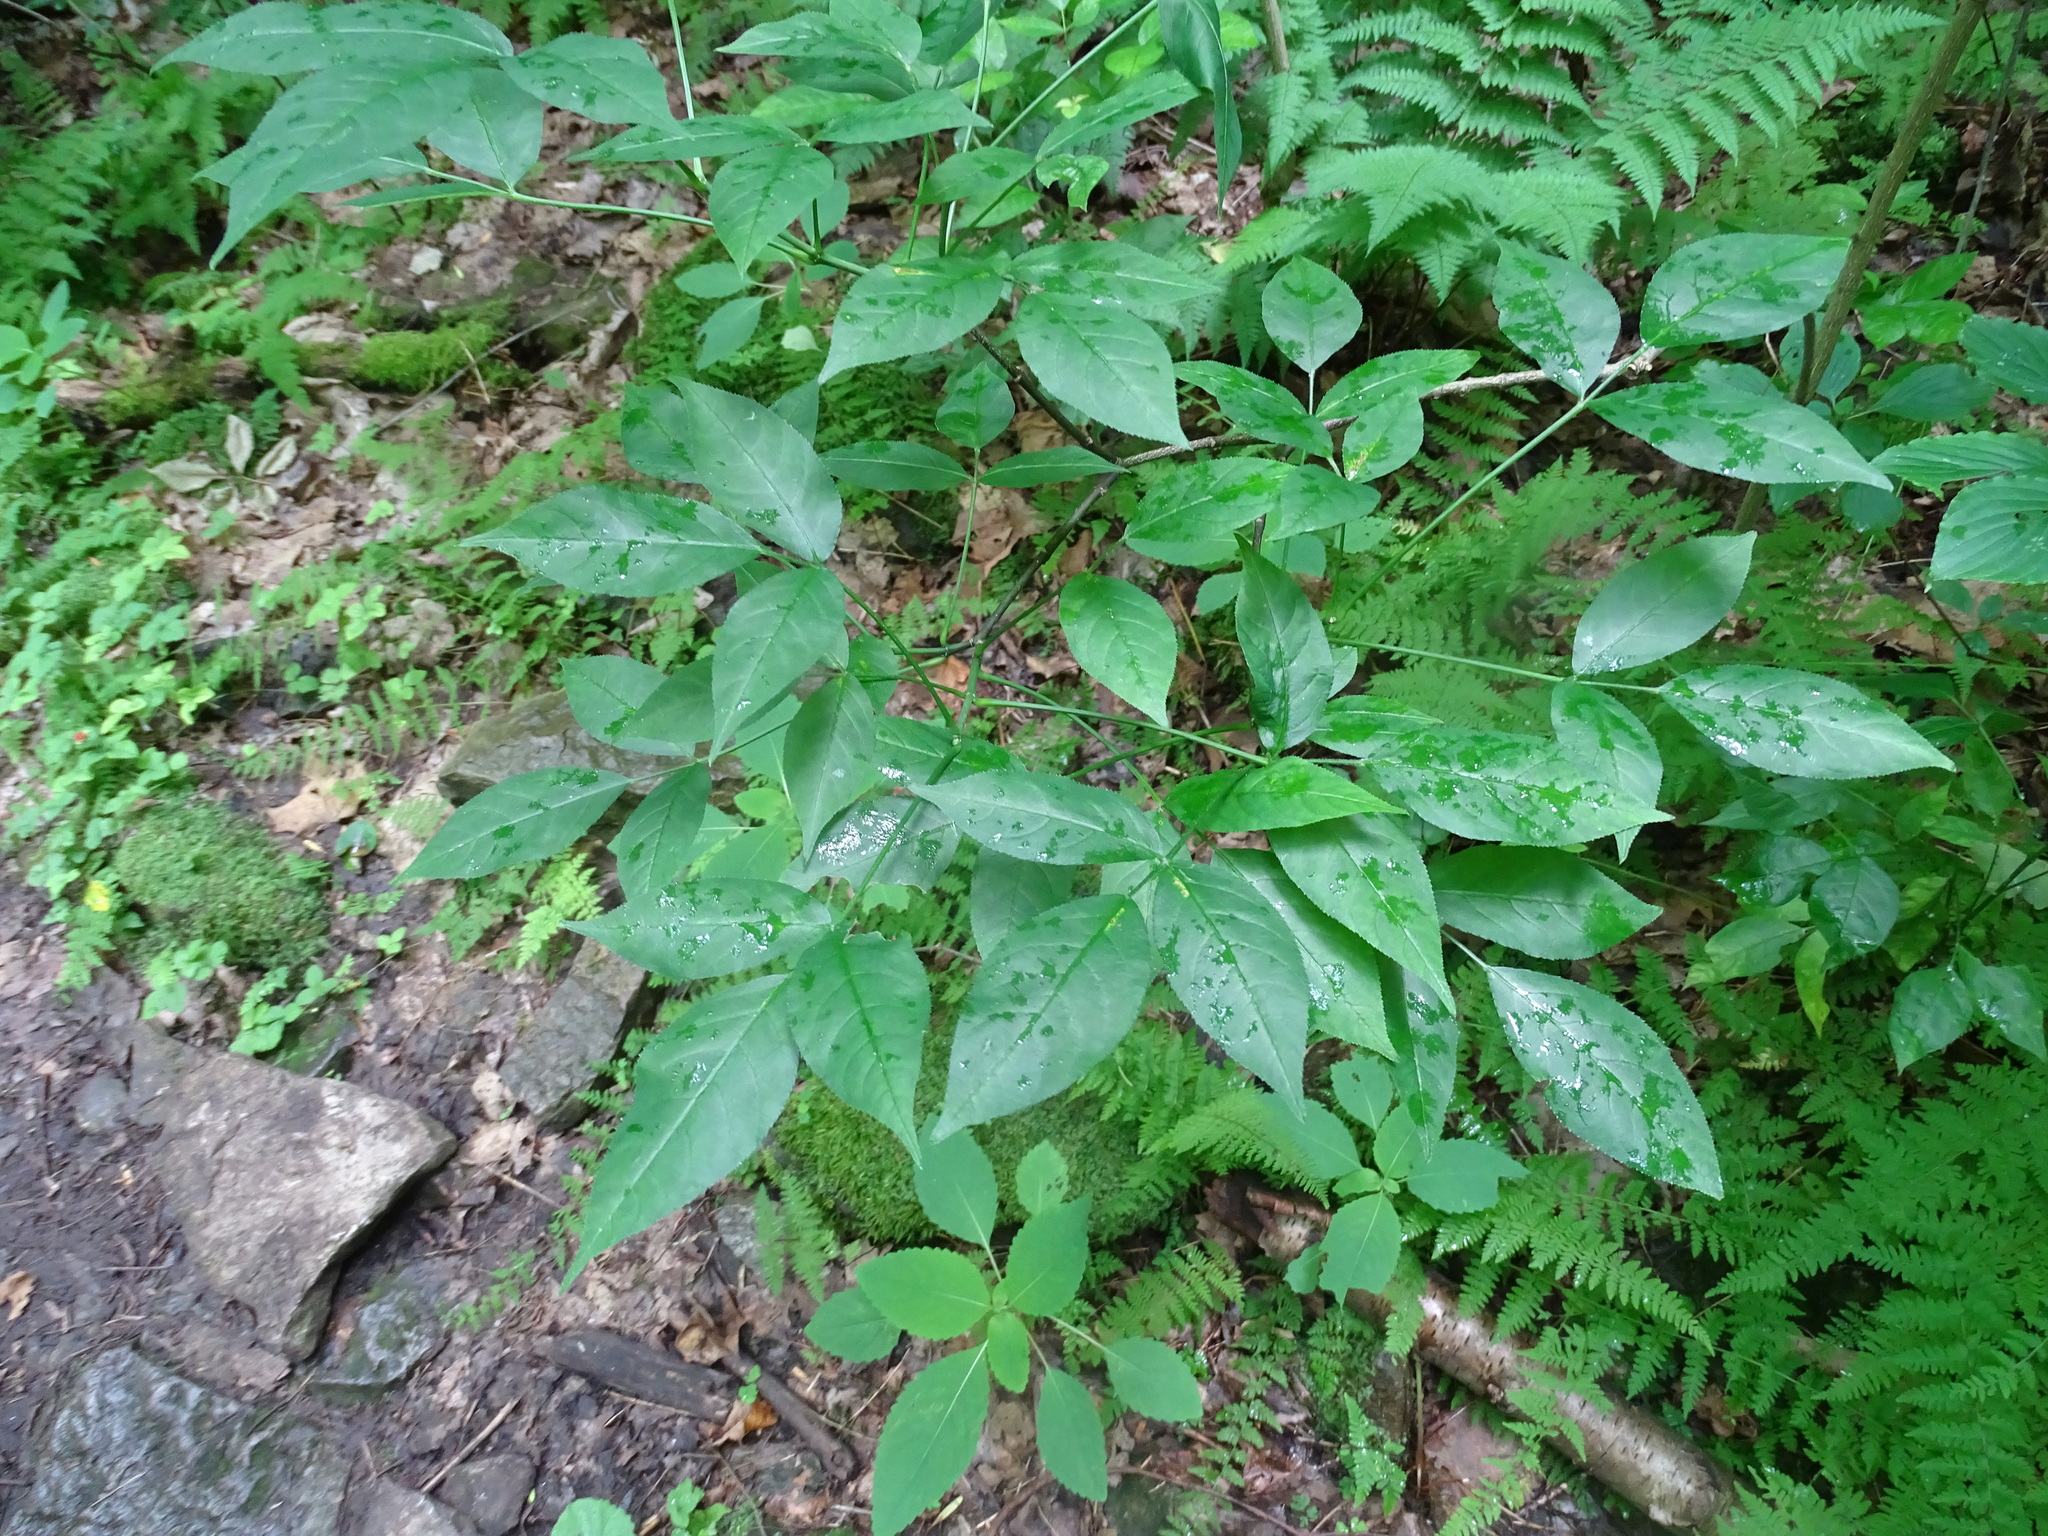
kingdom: Plantae
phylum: Tracheophyta
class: Magnoliopsida
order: Crossosomatales
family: Staphyleaceae
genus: Staphylea
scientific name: Staphylea trifolia
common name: American bladdernut
